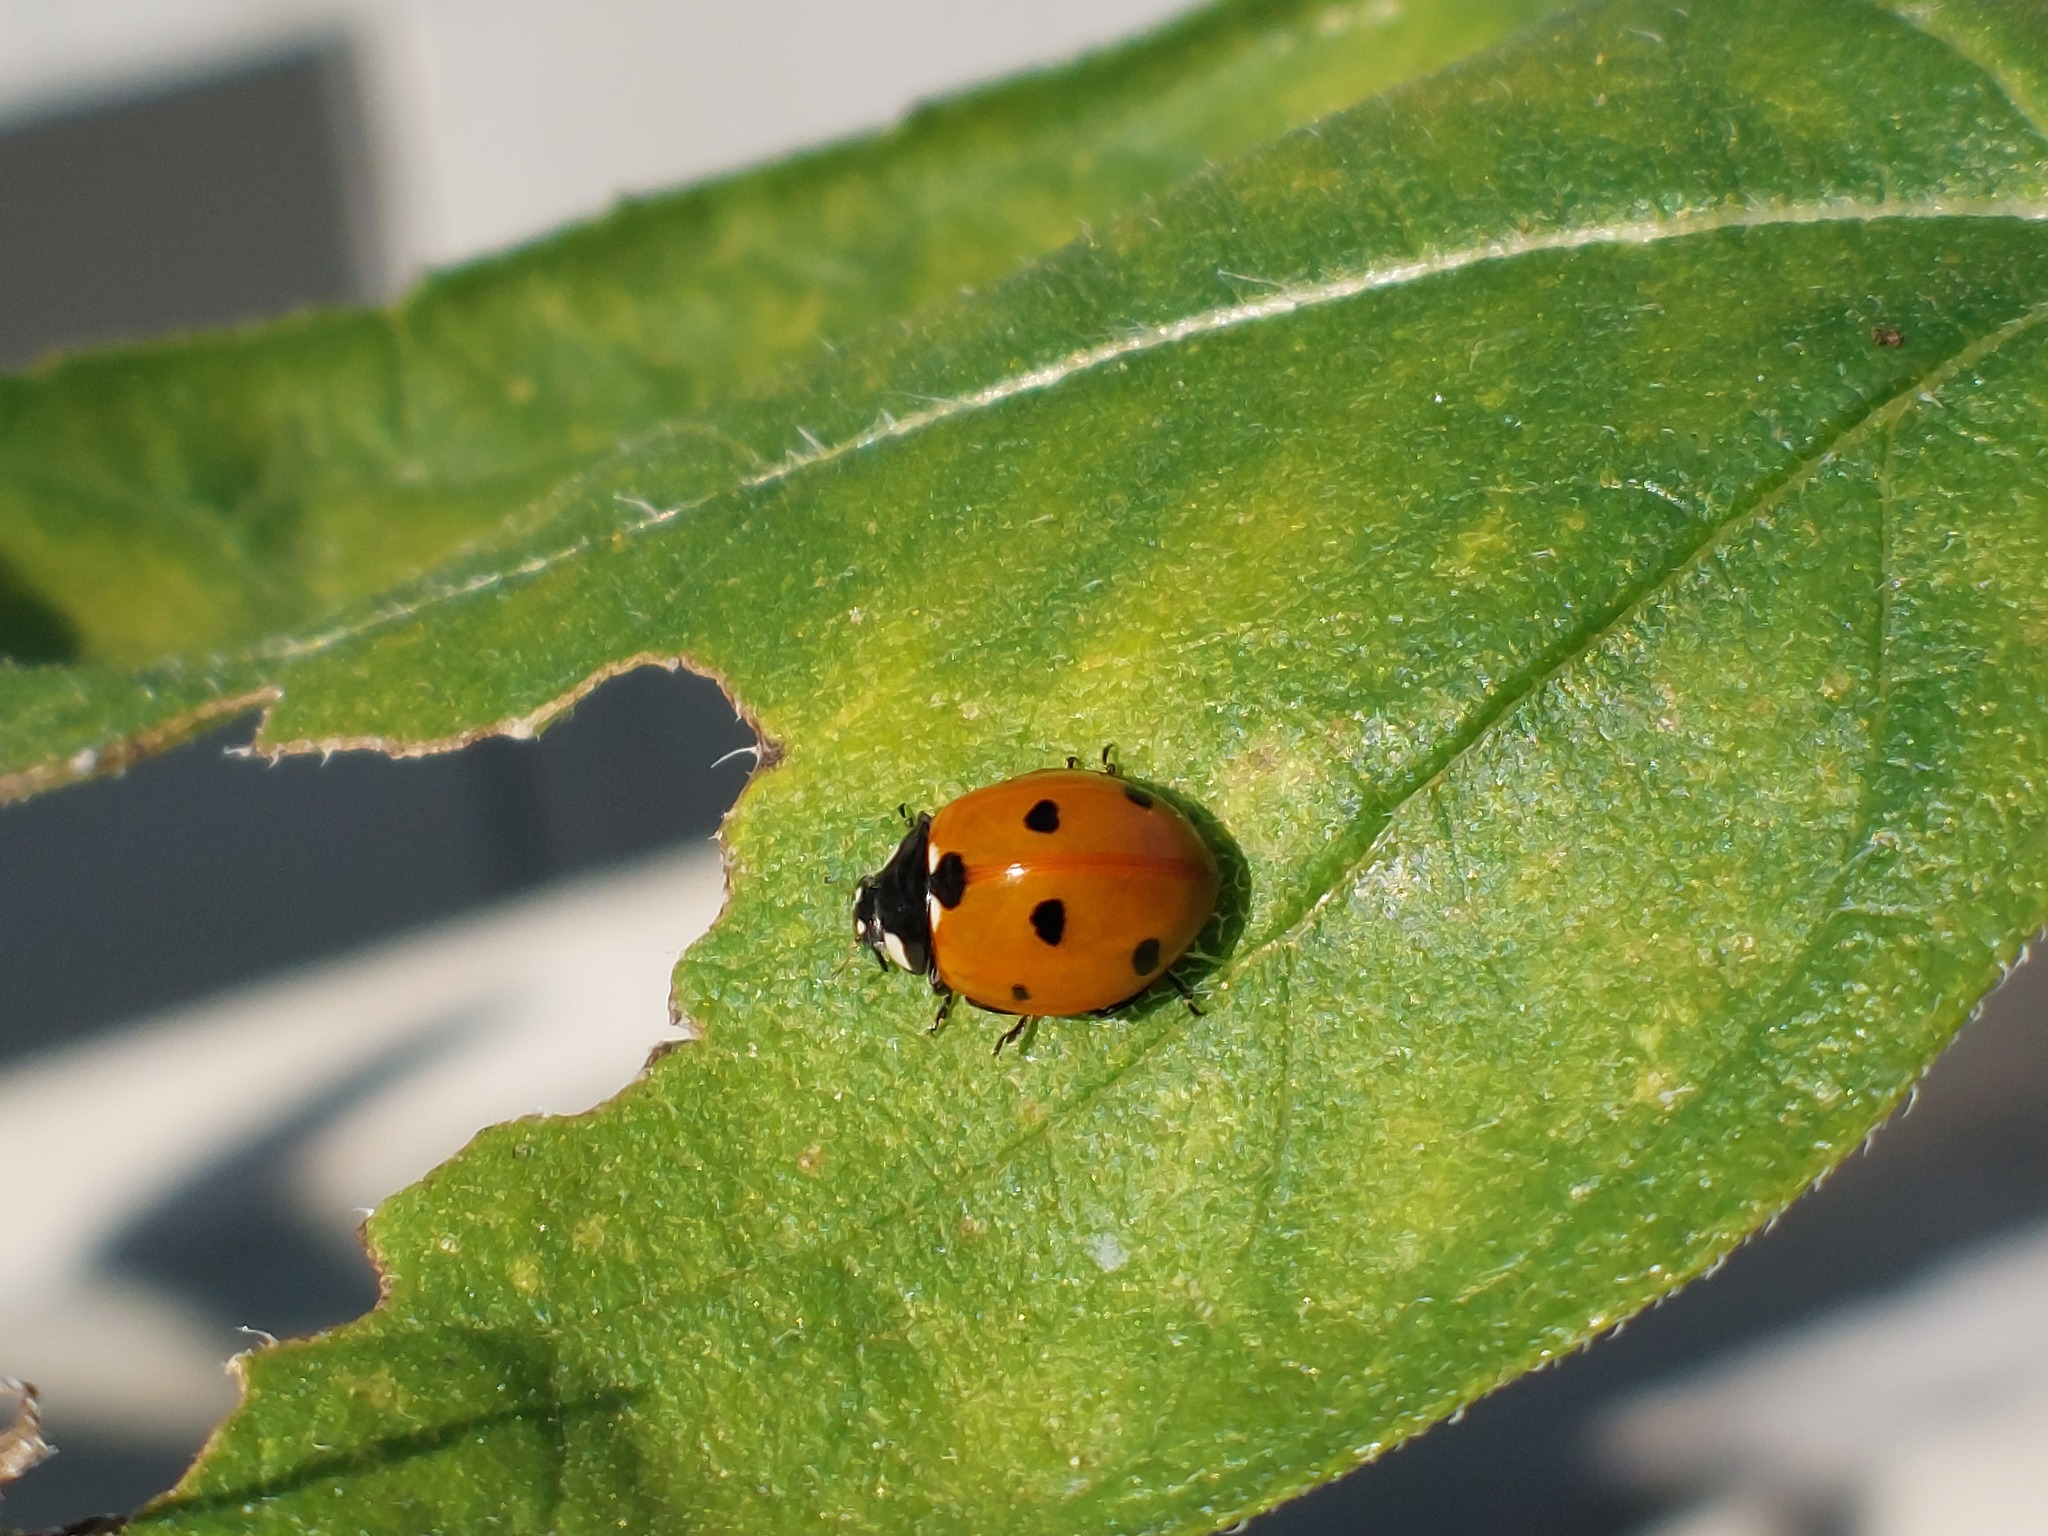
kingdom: Animalia
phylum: Arthropoda
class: Insecta
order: Coleoptera
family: Coccinellidae
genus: Coccinella
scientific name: Coccinella septempunctata
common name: Sevenspotted lady beetle
